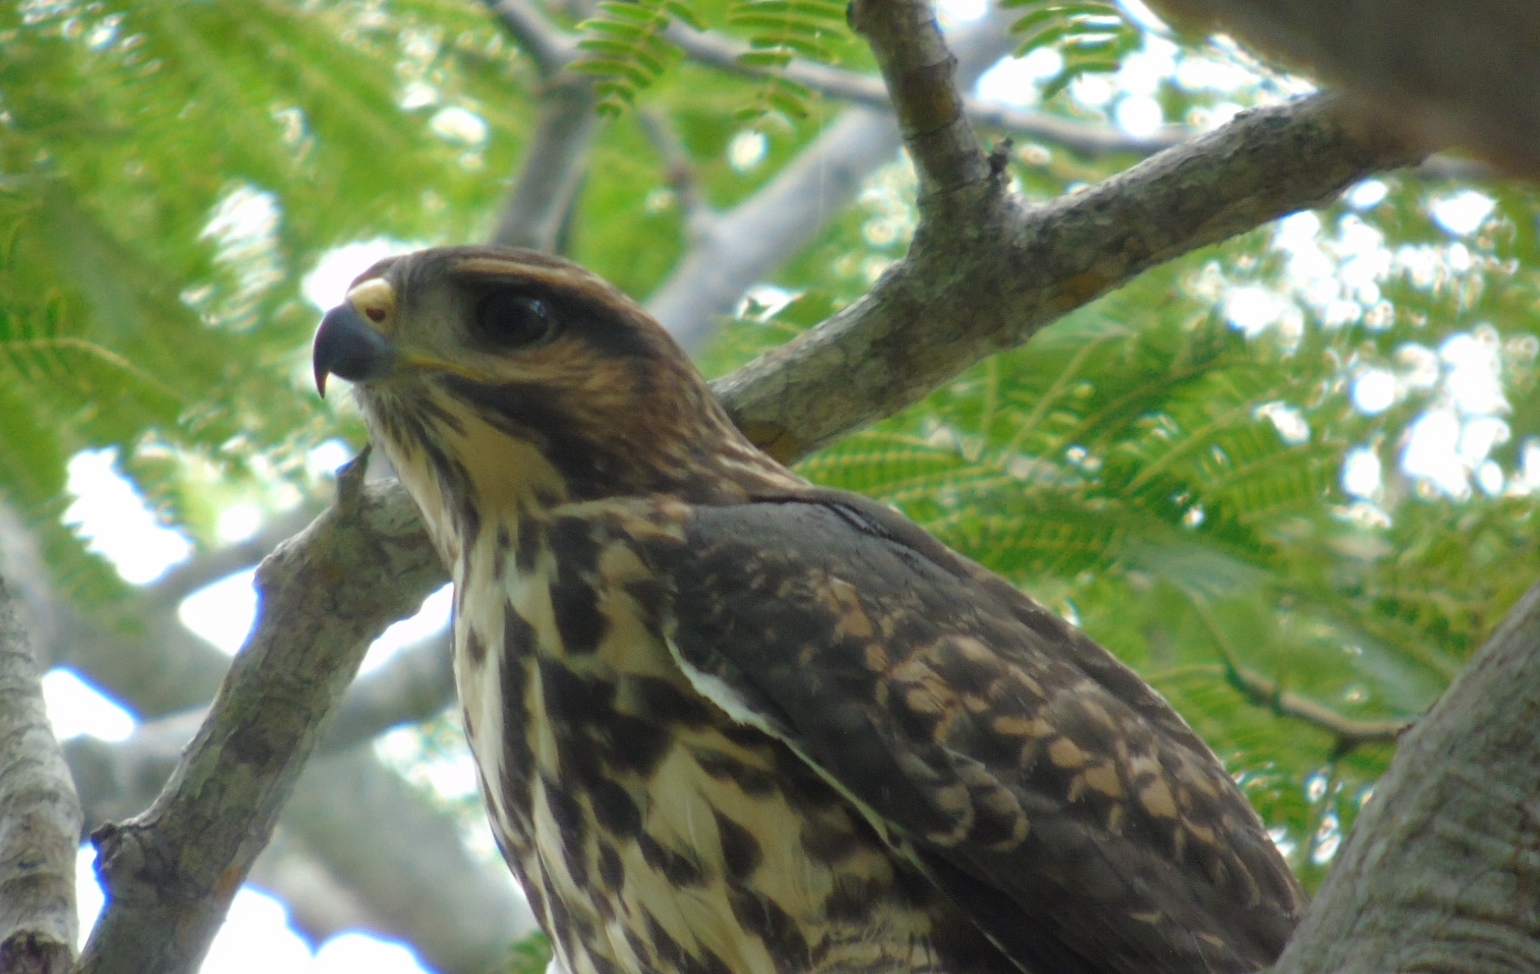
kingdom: Animalia
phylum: Chordata
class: Aves
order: Accipitriformes
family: Accipitridae
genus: Buteo
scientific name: Buteo nitidus
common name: Grey-lined hawk
